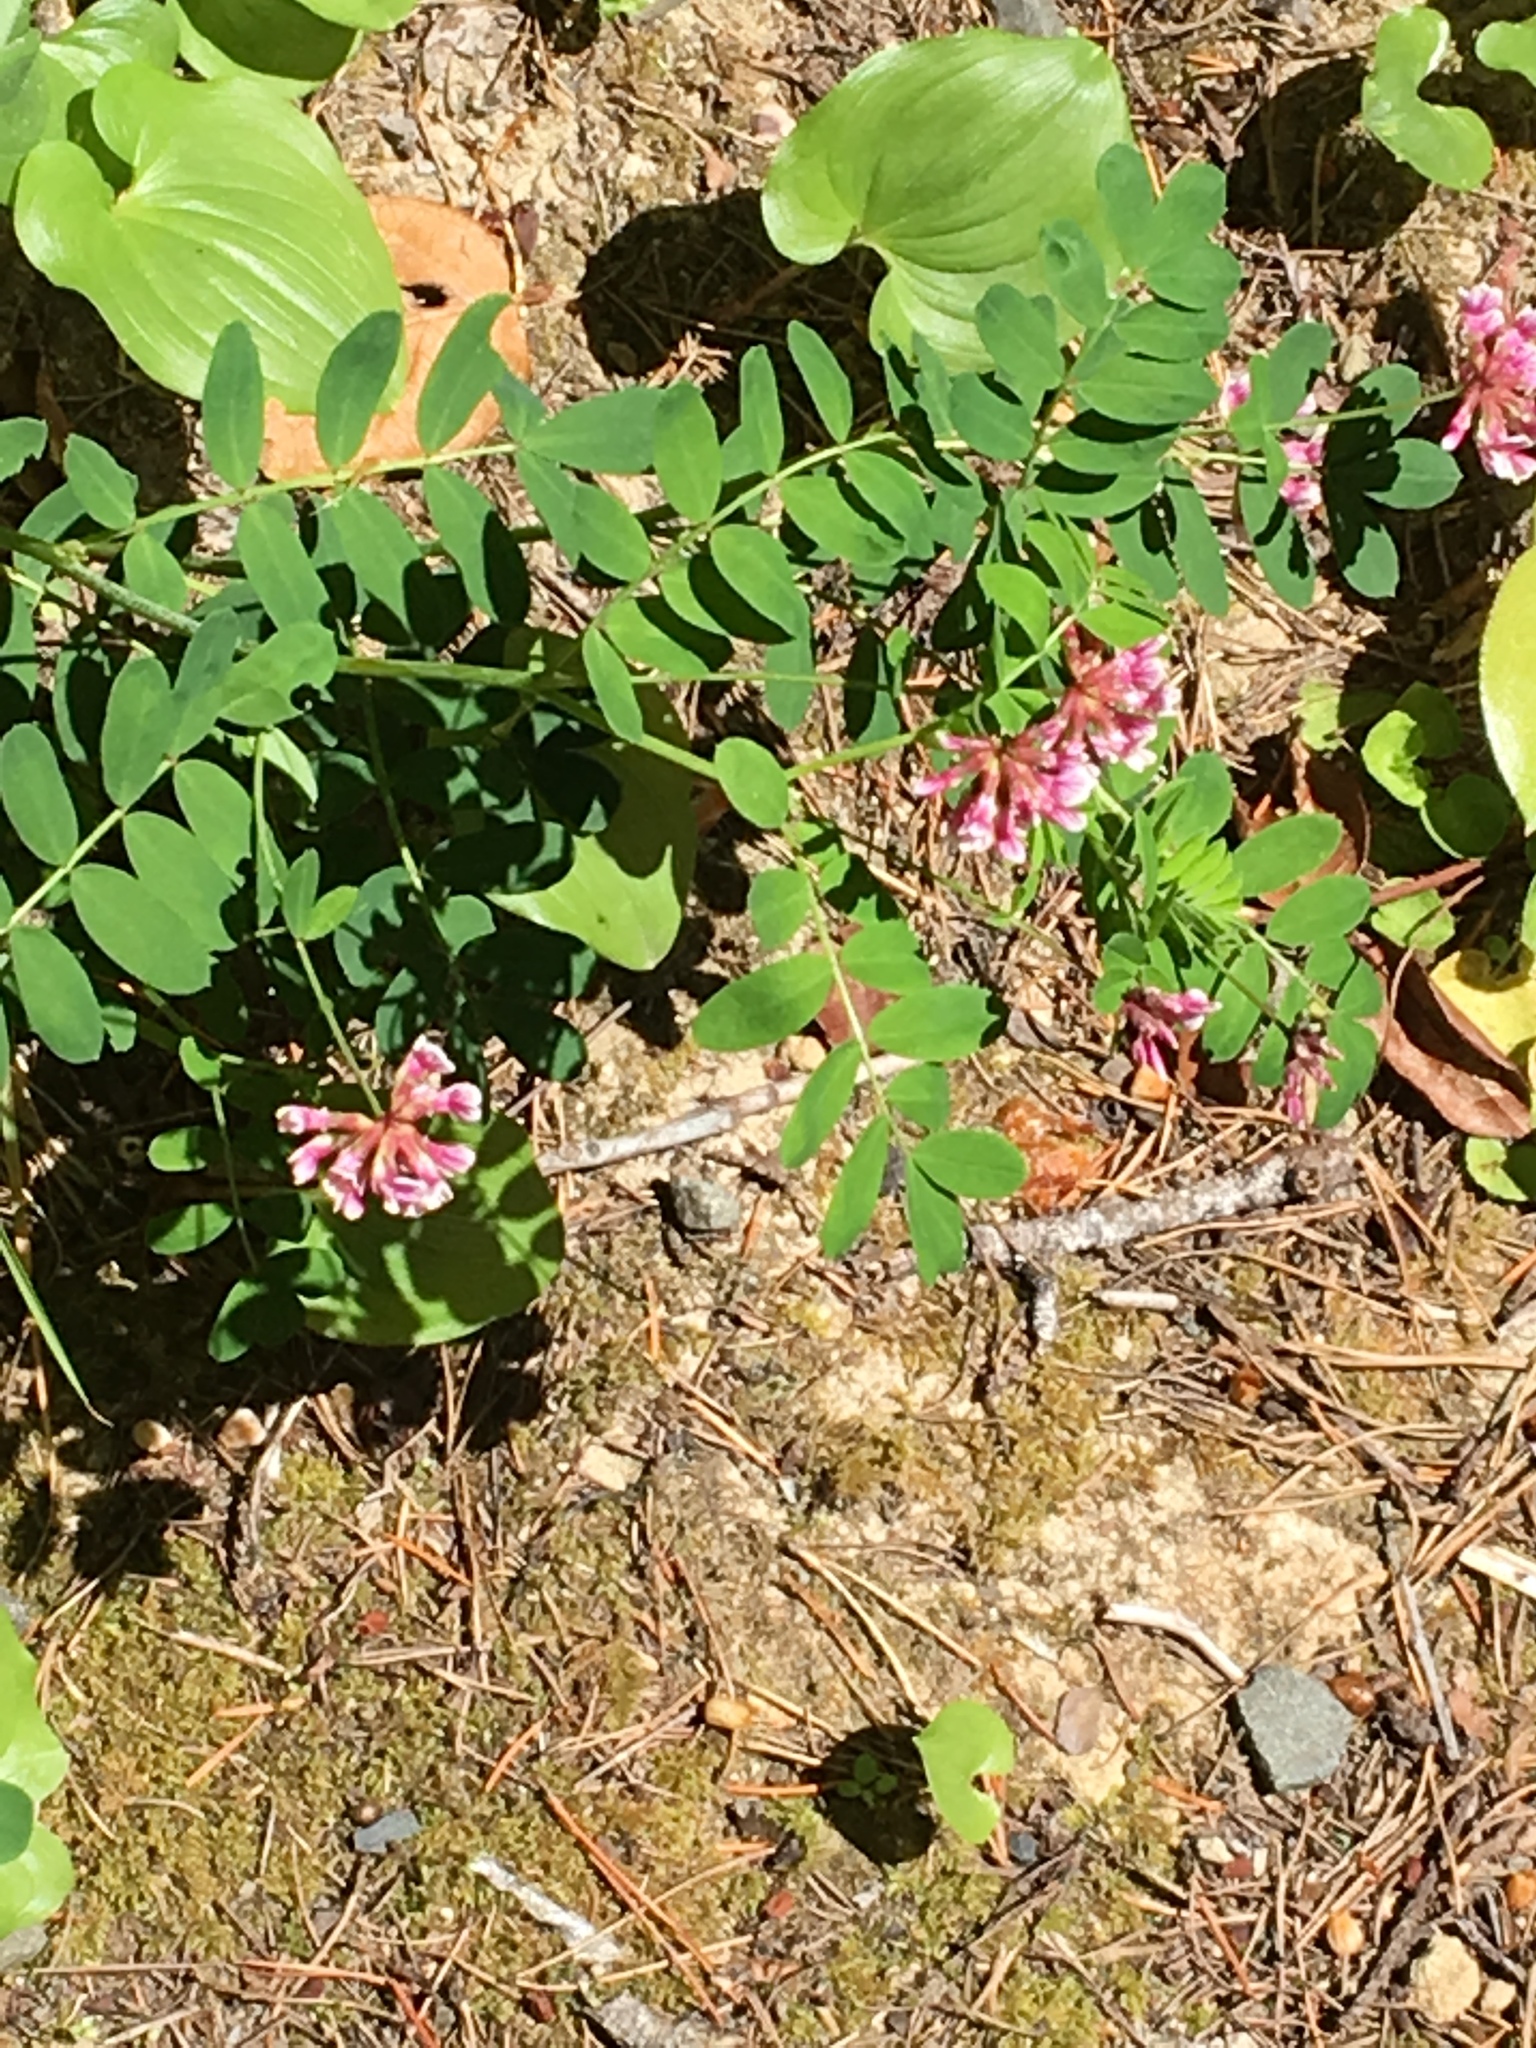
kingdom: Plantae
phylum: Tracheophyta
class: Magnoliopsida
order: Fabales
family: Fabaceae
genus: Hosackia
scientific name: Hosackia rosea
